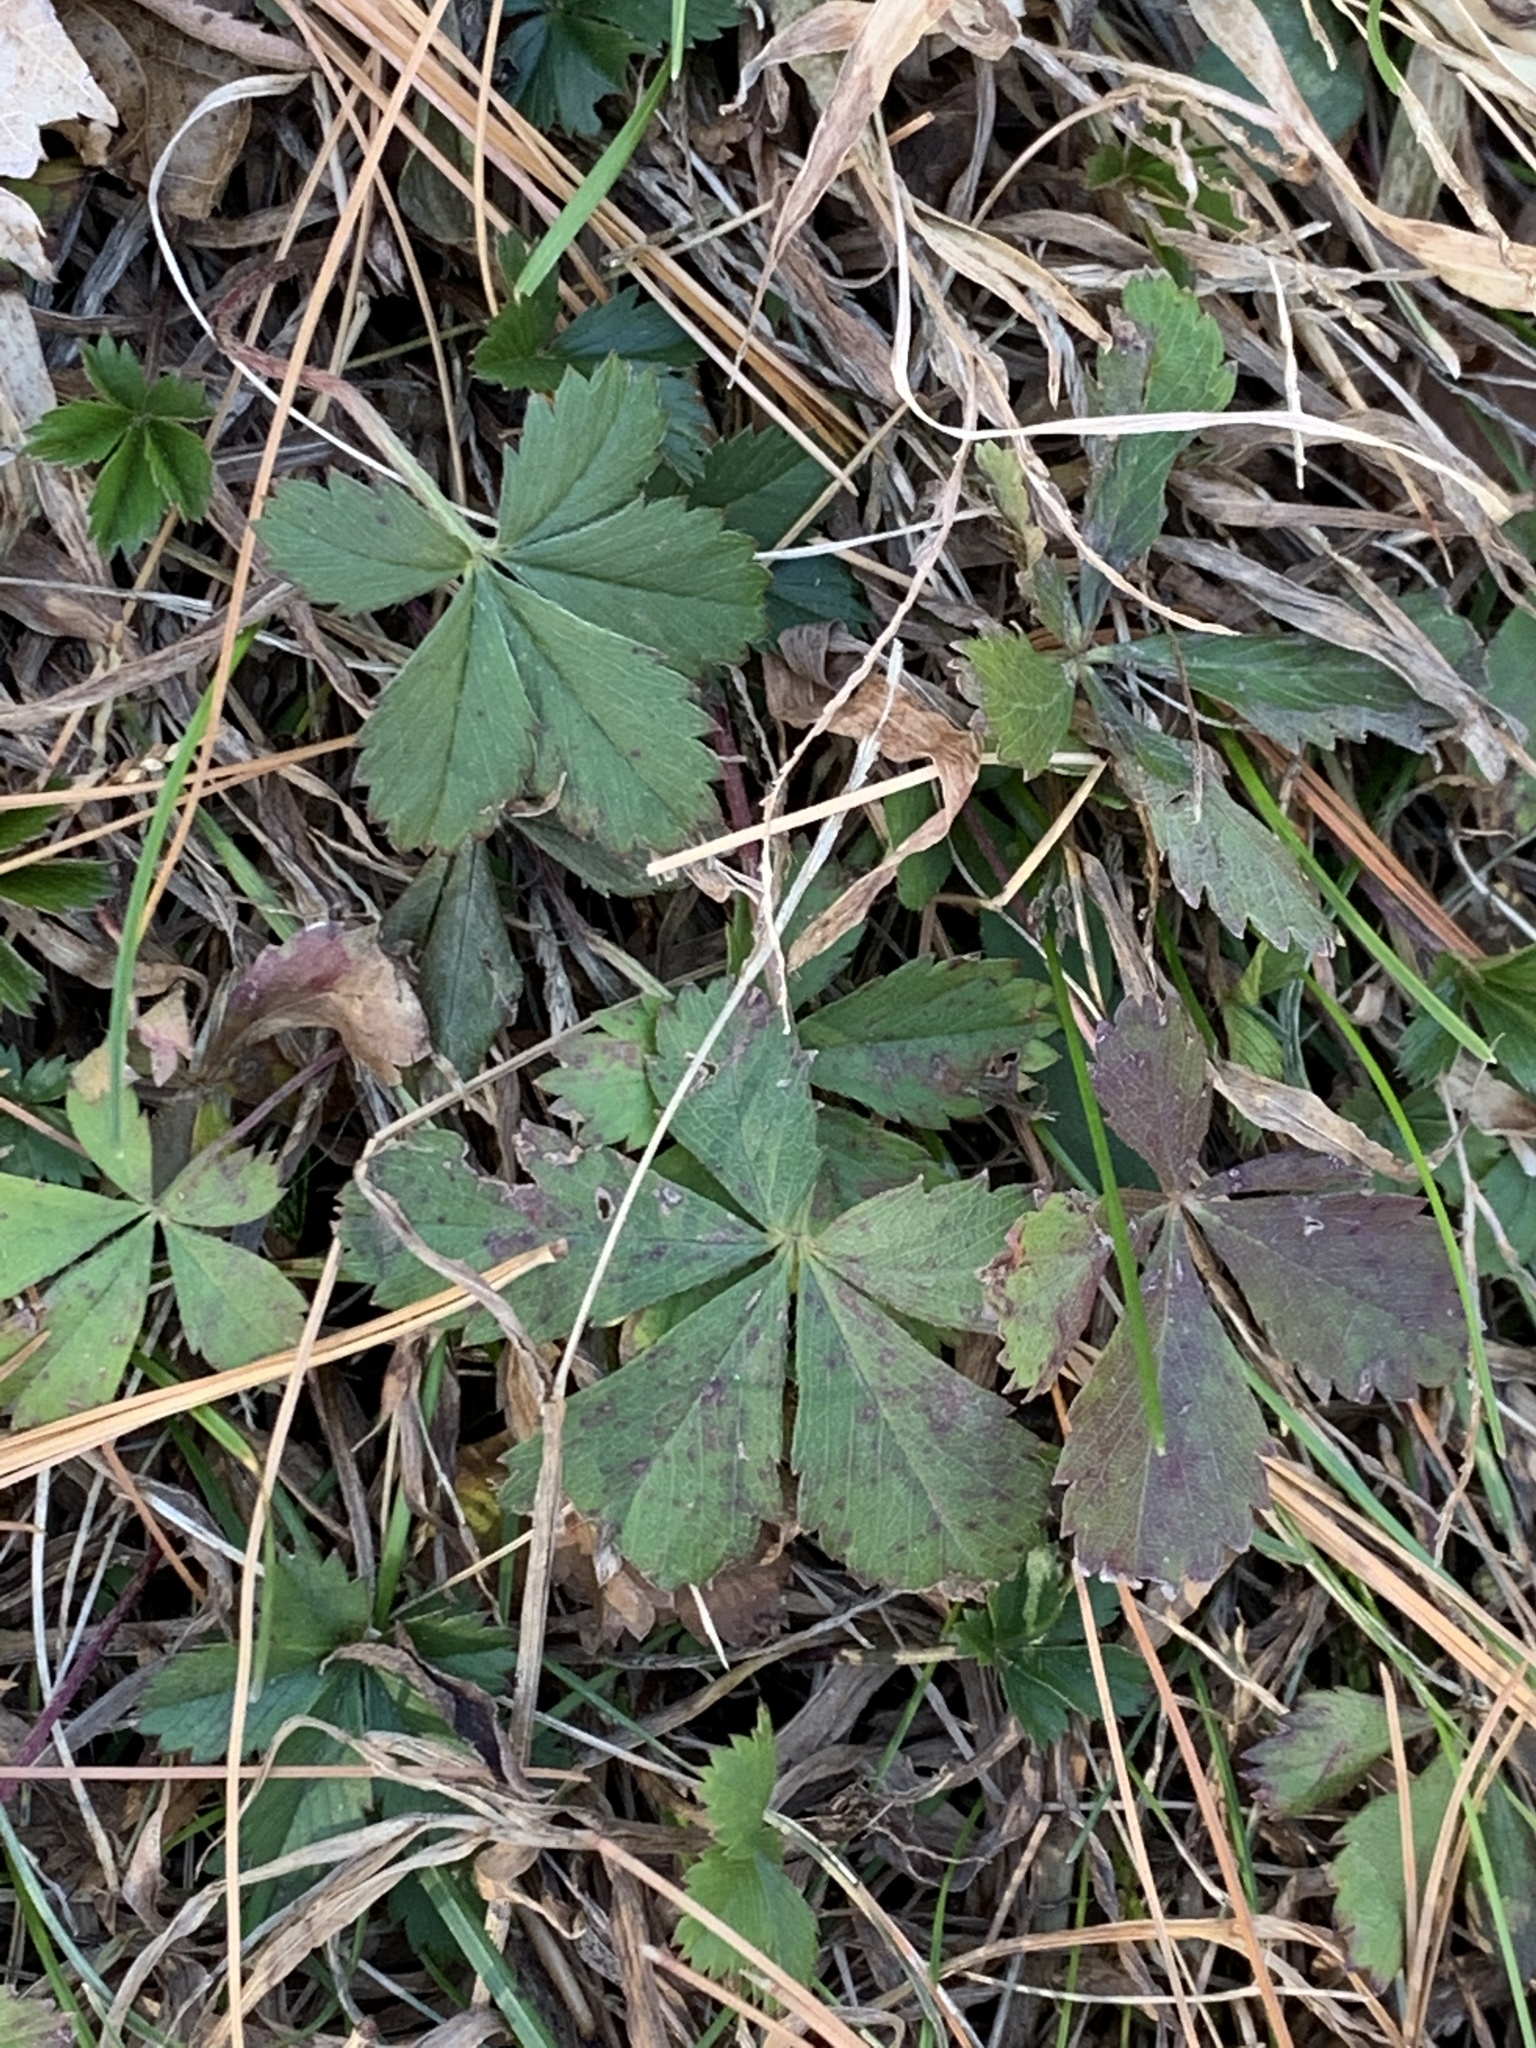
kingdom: Plantae
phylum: Tracheophyta
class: Magnoliopsida
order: Rosales
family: Rosaceae
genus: Potentilla
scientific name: Potentilla canadensis
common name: Canada cinquefoil
